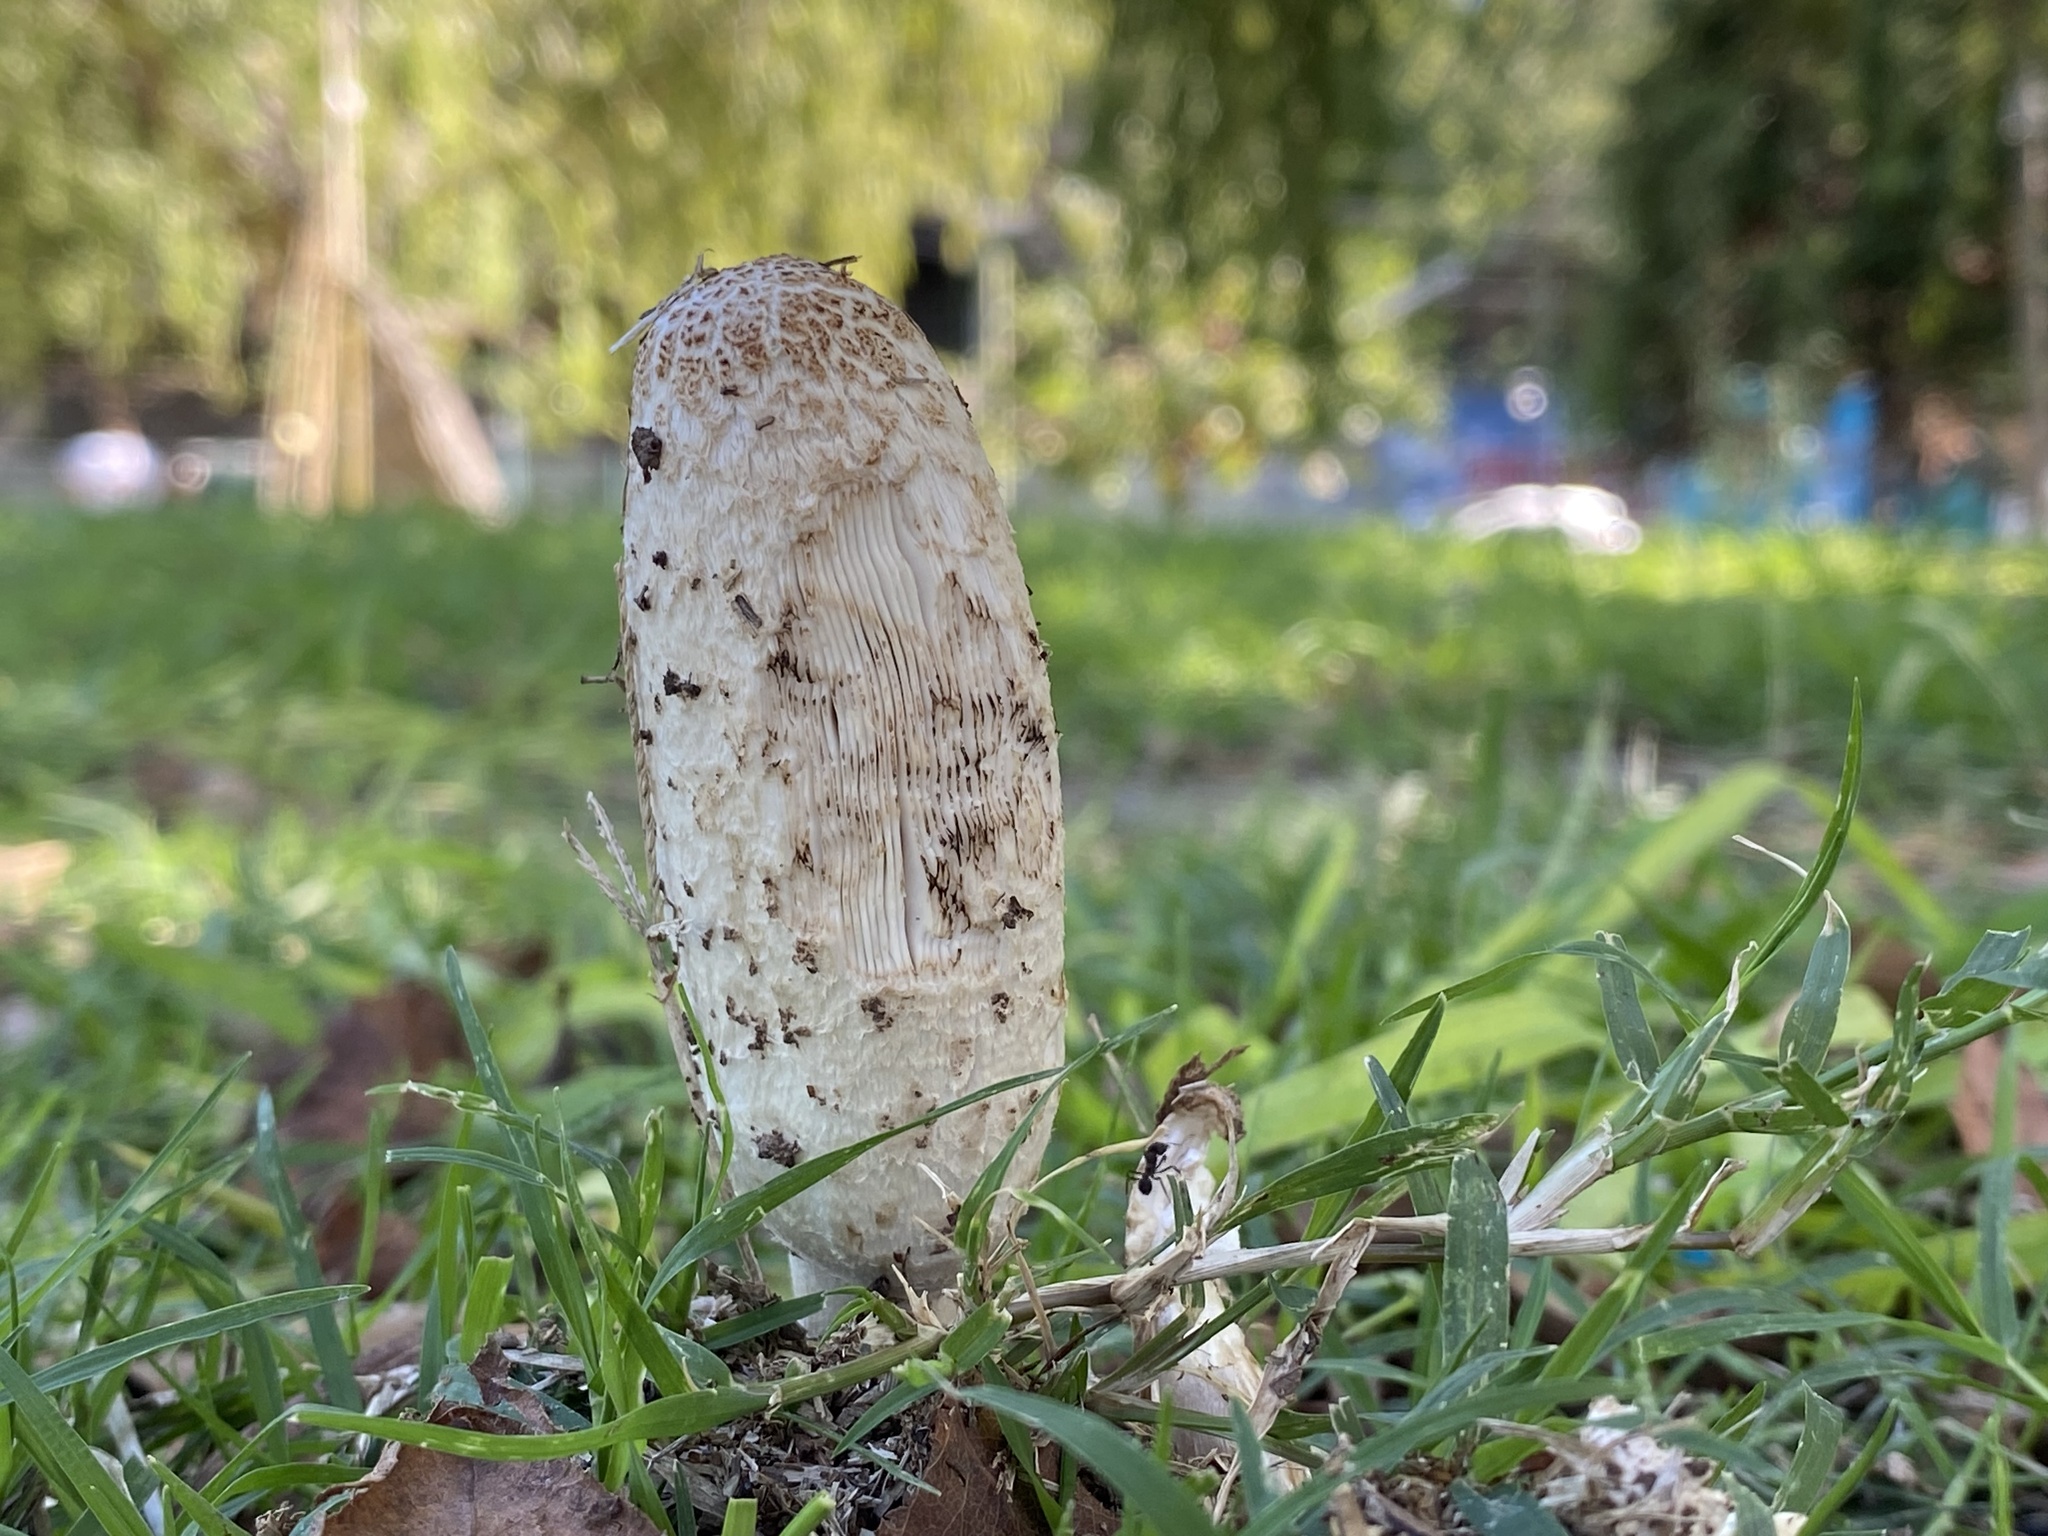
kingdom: Fungi
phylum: Basidiomycota
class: Agaricomycetes
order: Agaricales
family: Agaricaceae
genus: Coprinus
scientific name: Coprinus comatus
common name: Lawyer's wig
